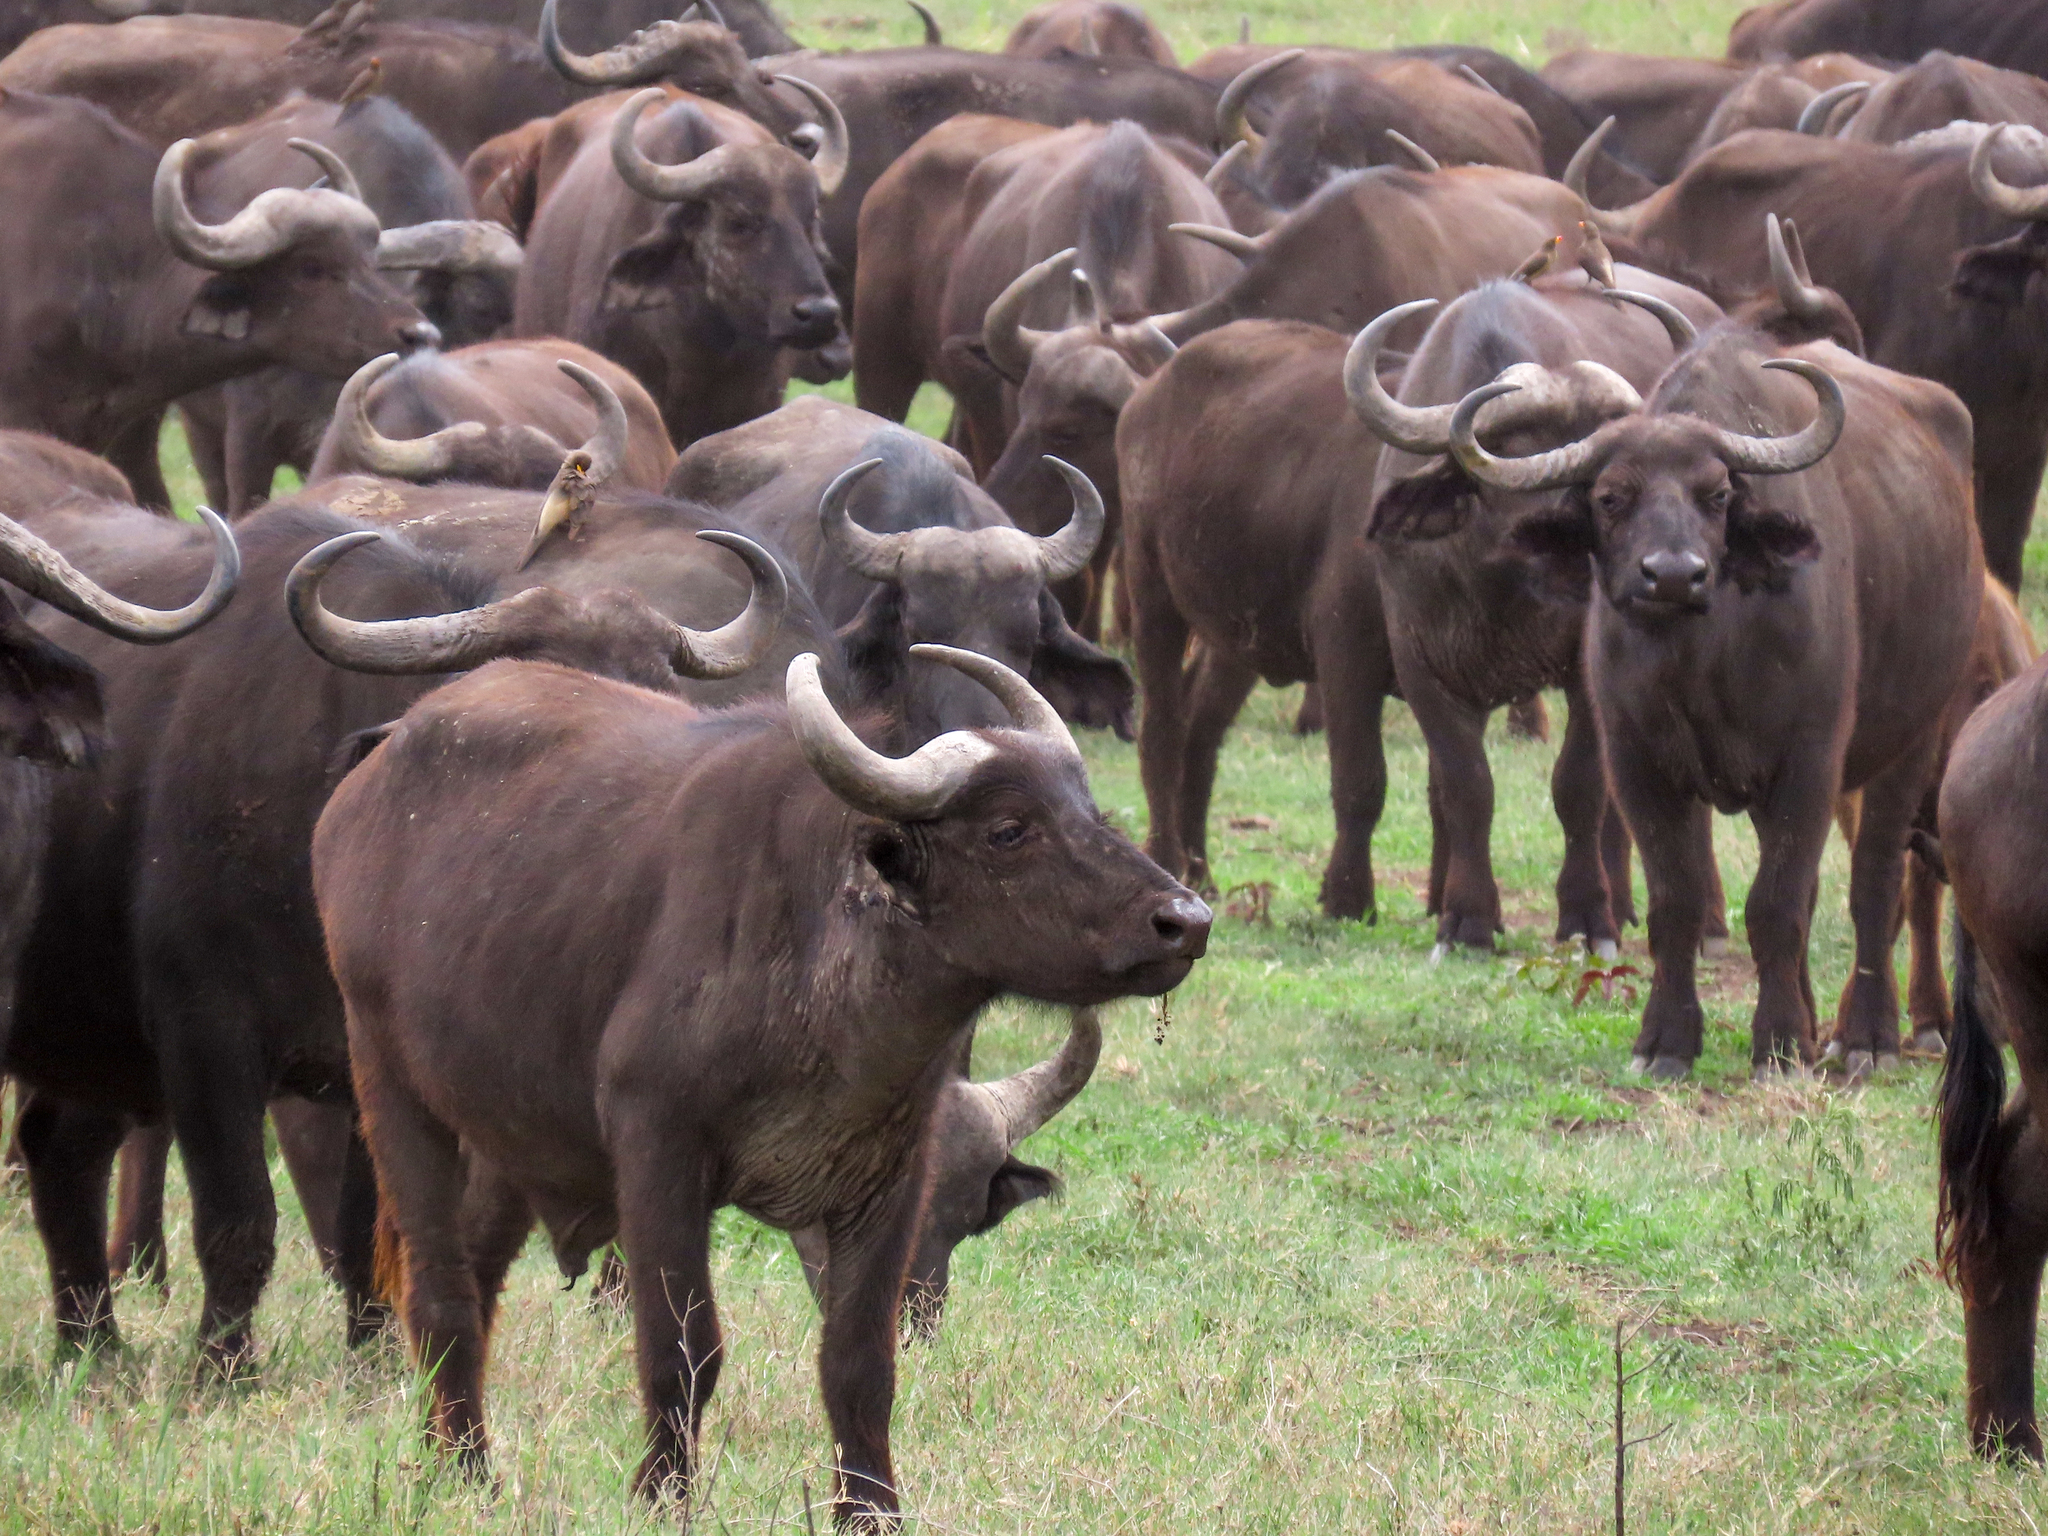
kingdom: Animalia
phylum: Chordata
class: Mammalia
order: Artiodactyla
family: Bovidae
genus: Syncerus
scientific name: Syncerus caffer
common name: African buffalo
